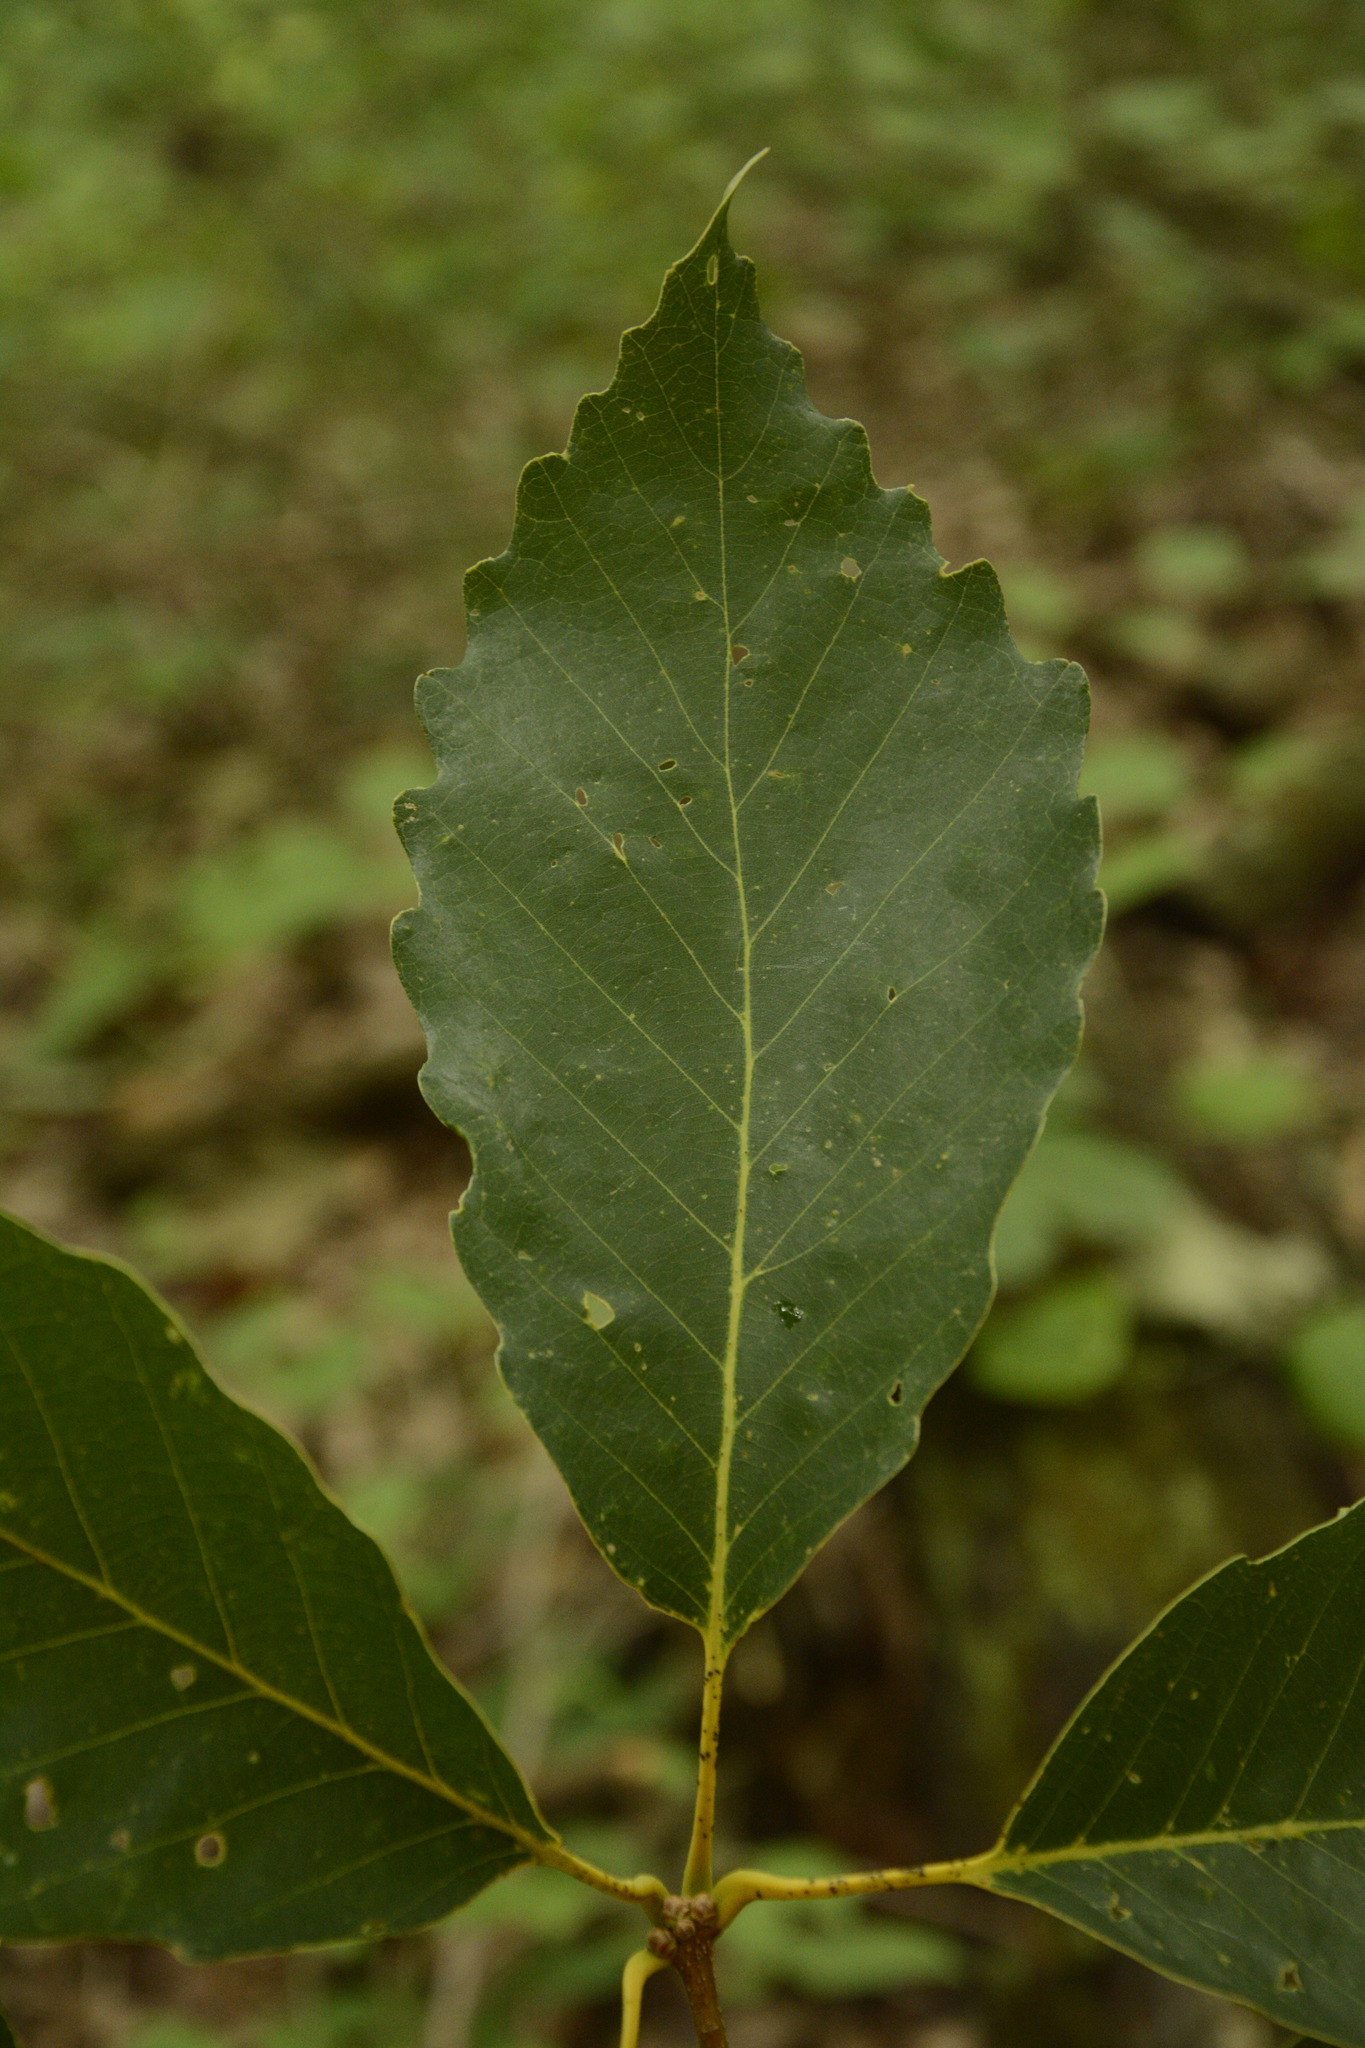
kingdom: Plantae
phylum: Tracheophyta
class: Magnoliopsida
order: Fagales
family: Fagaceae
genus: Quercus
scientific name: Quercus montana
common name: Chestnut oak
